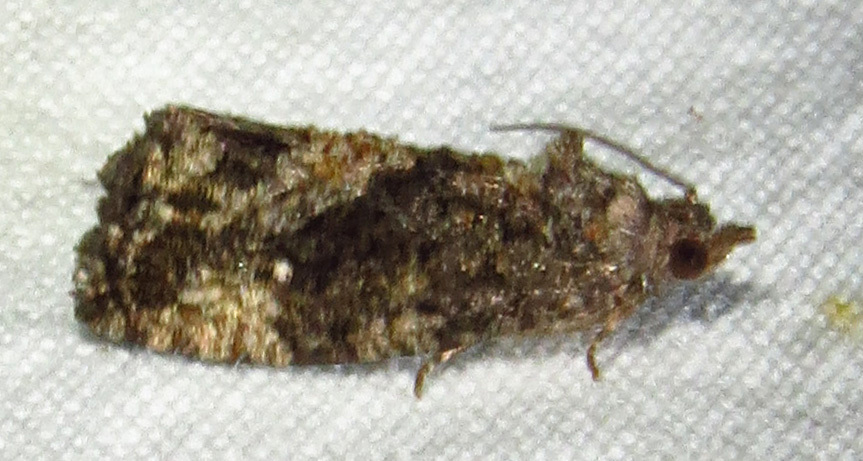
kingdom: Animalia
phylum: Arthropoda
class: Insecta
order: Lepidoptera
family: Tortricidae
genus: Gymnandrosoma
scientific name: Gymnandrosoma punctidiscanum
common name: Dotted ecdytolopha moth
